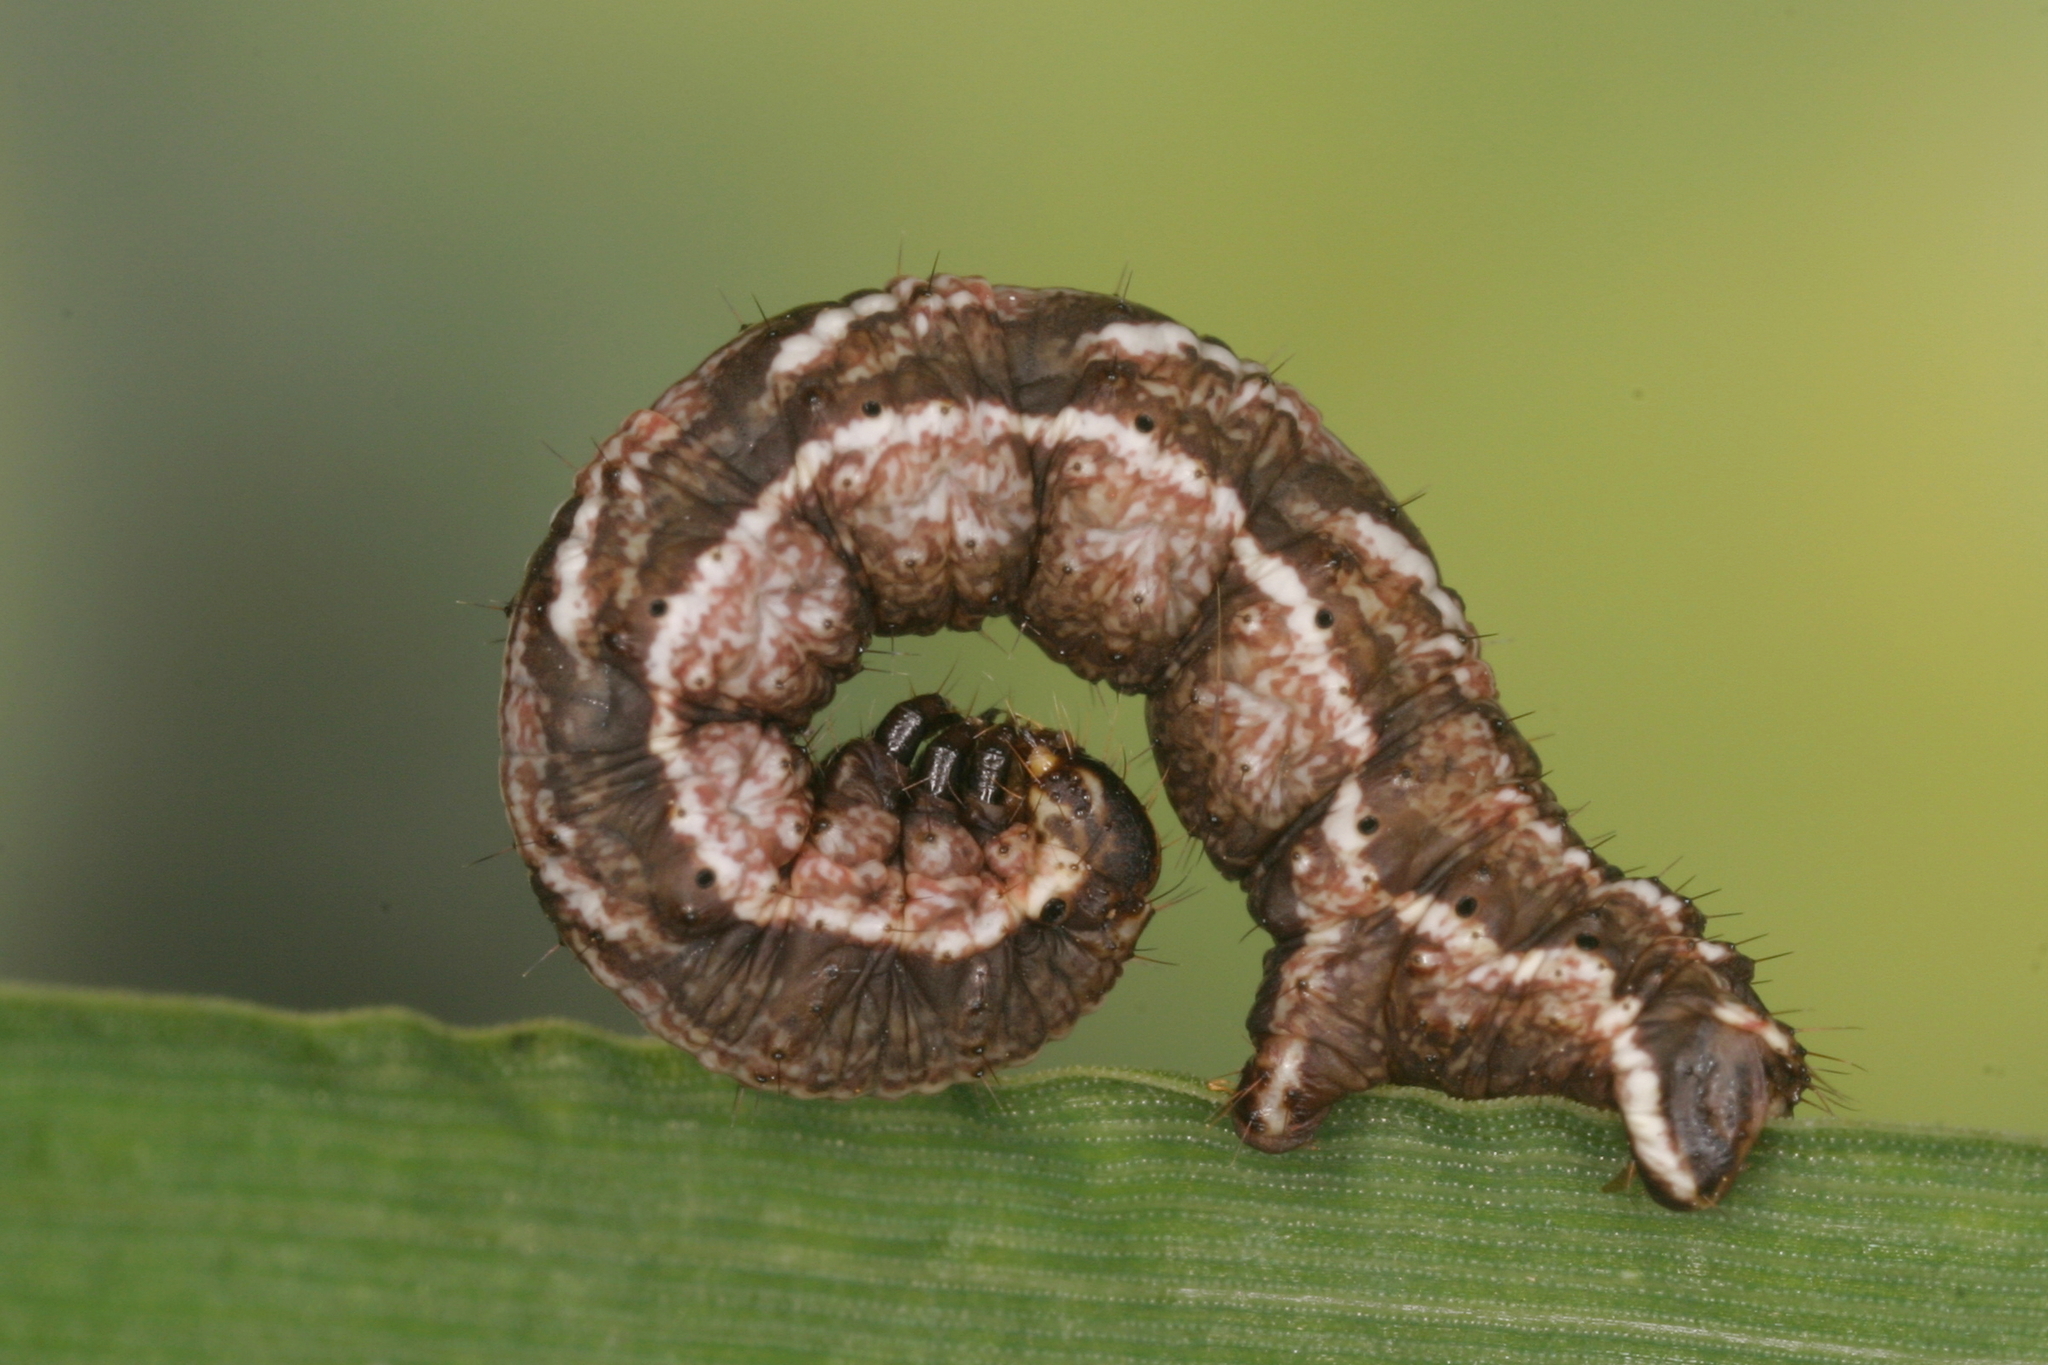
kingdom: Animalia
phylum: Arthropoda
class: Insecta
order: Lepidoptera
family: Geometridae
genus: Cosmorhoe
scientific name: Cosmorhoe ocellata
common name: Purple bar
